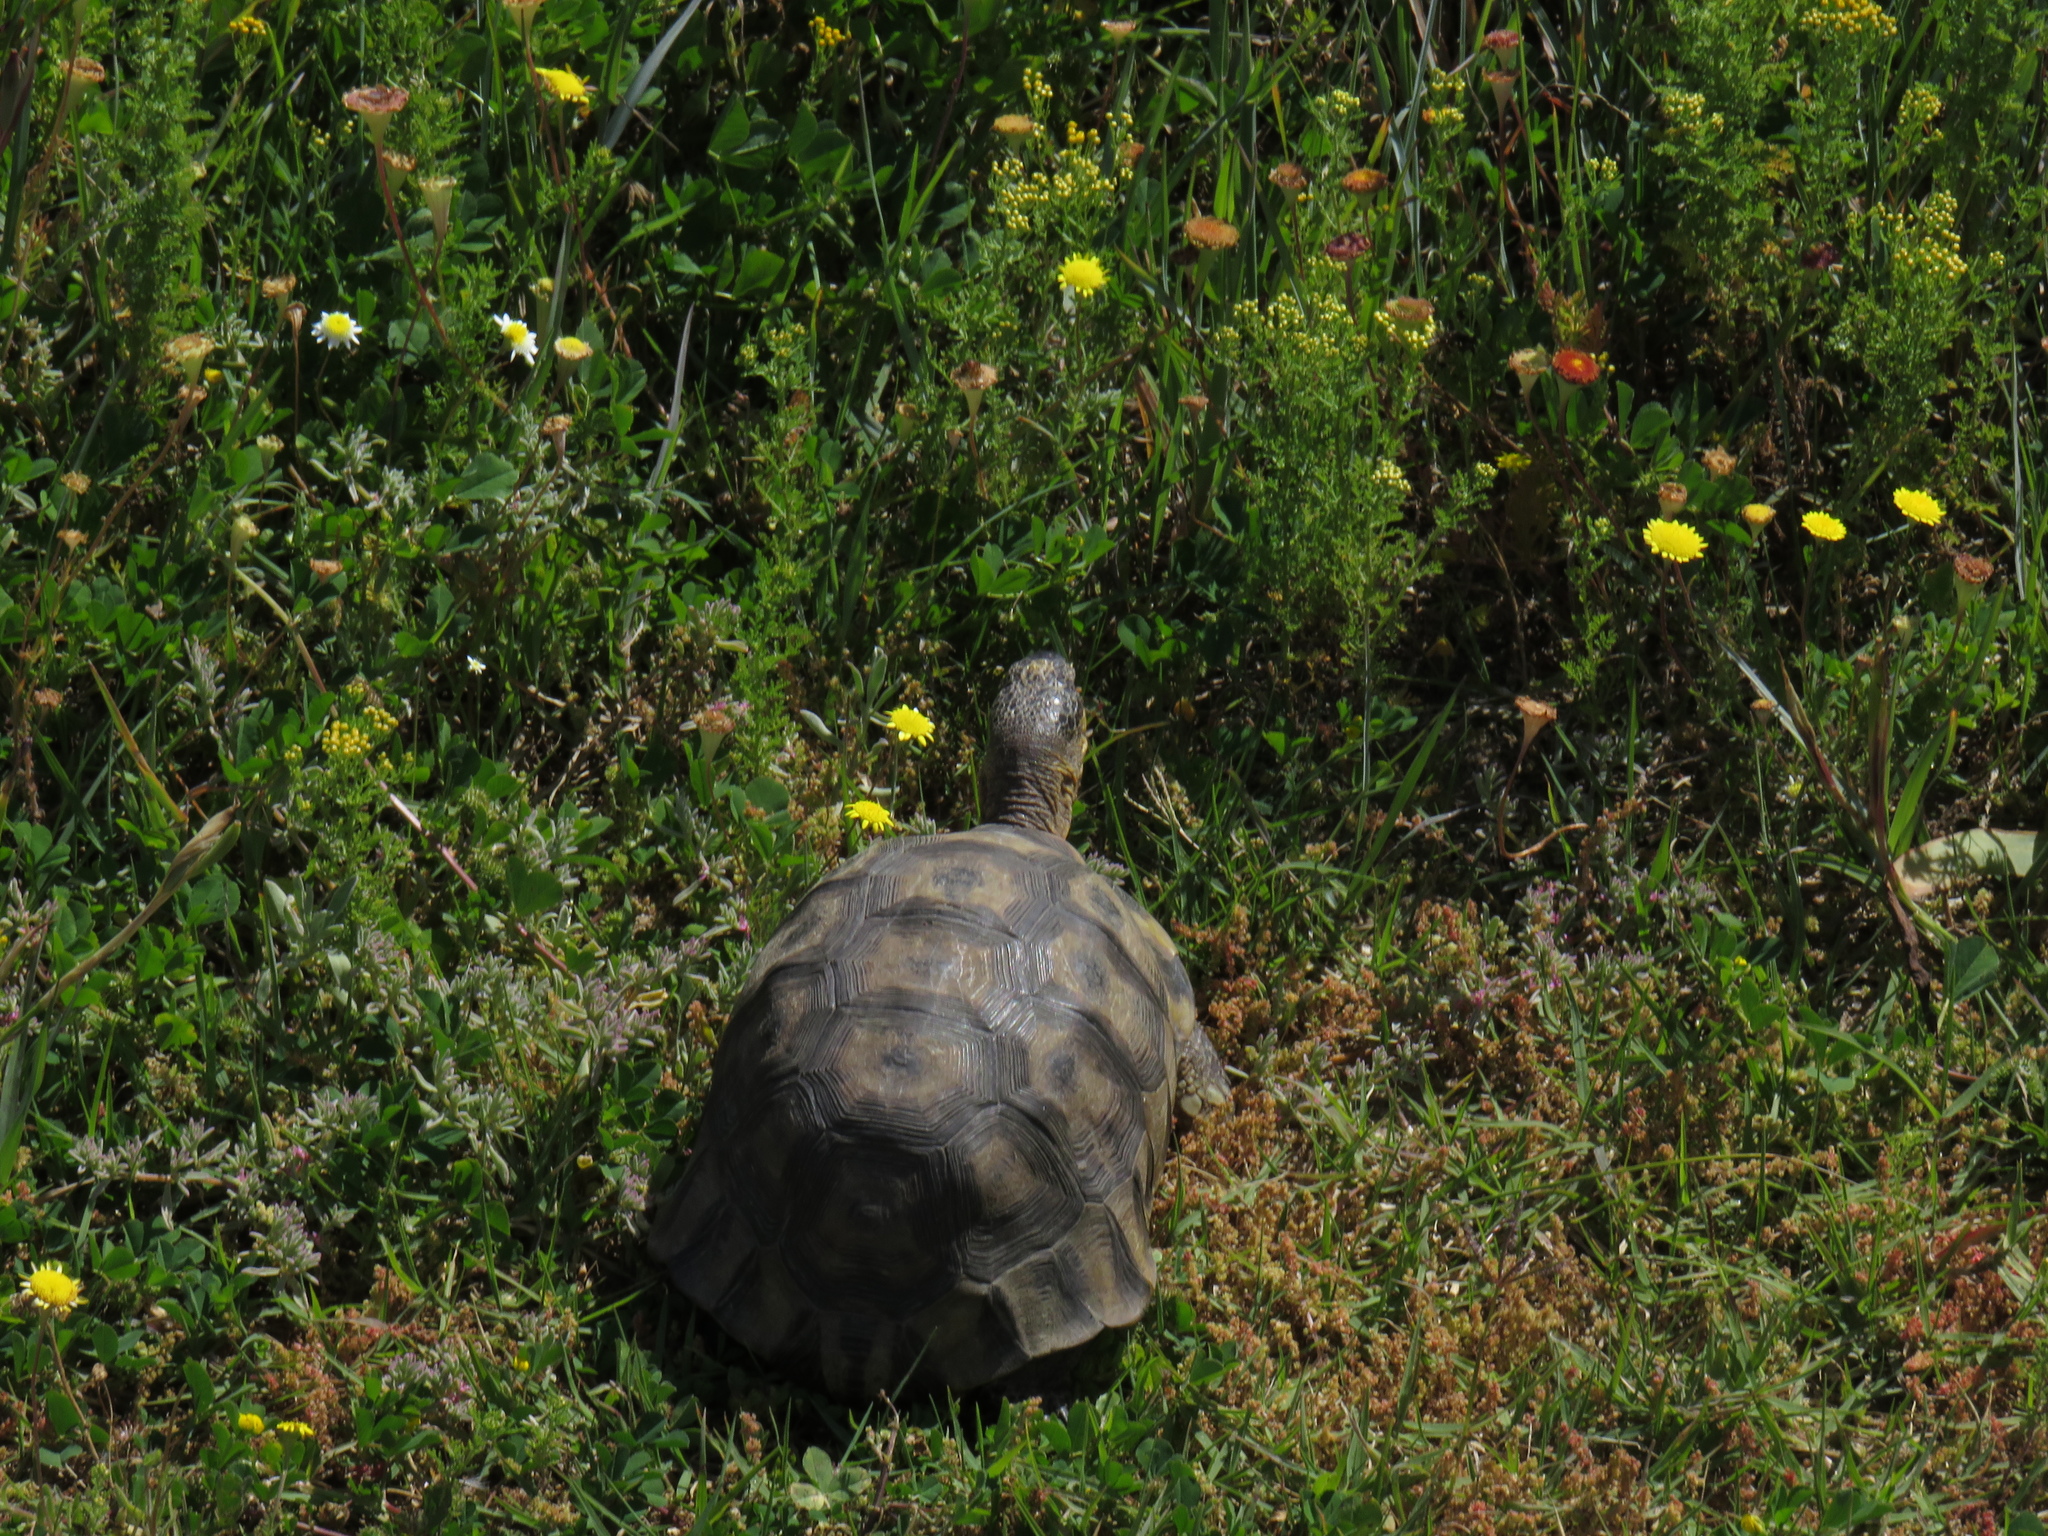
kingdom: Animalia
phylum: Chordata
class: Testudines
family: Testudinidae
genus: Chersina
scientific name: Chersina angulata
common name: South african bowsprit tortoise
